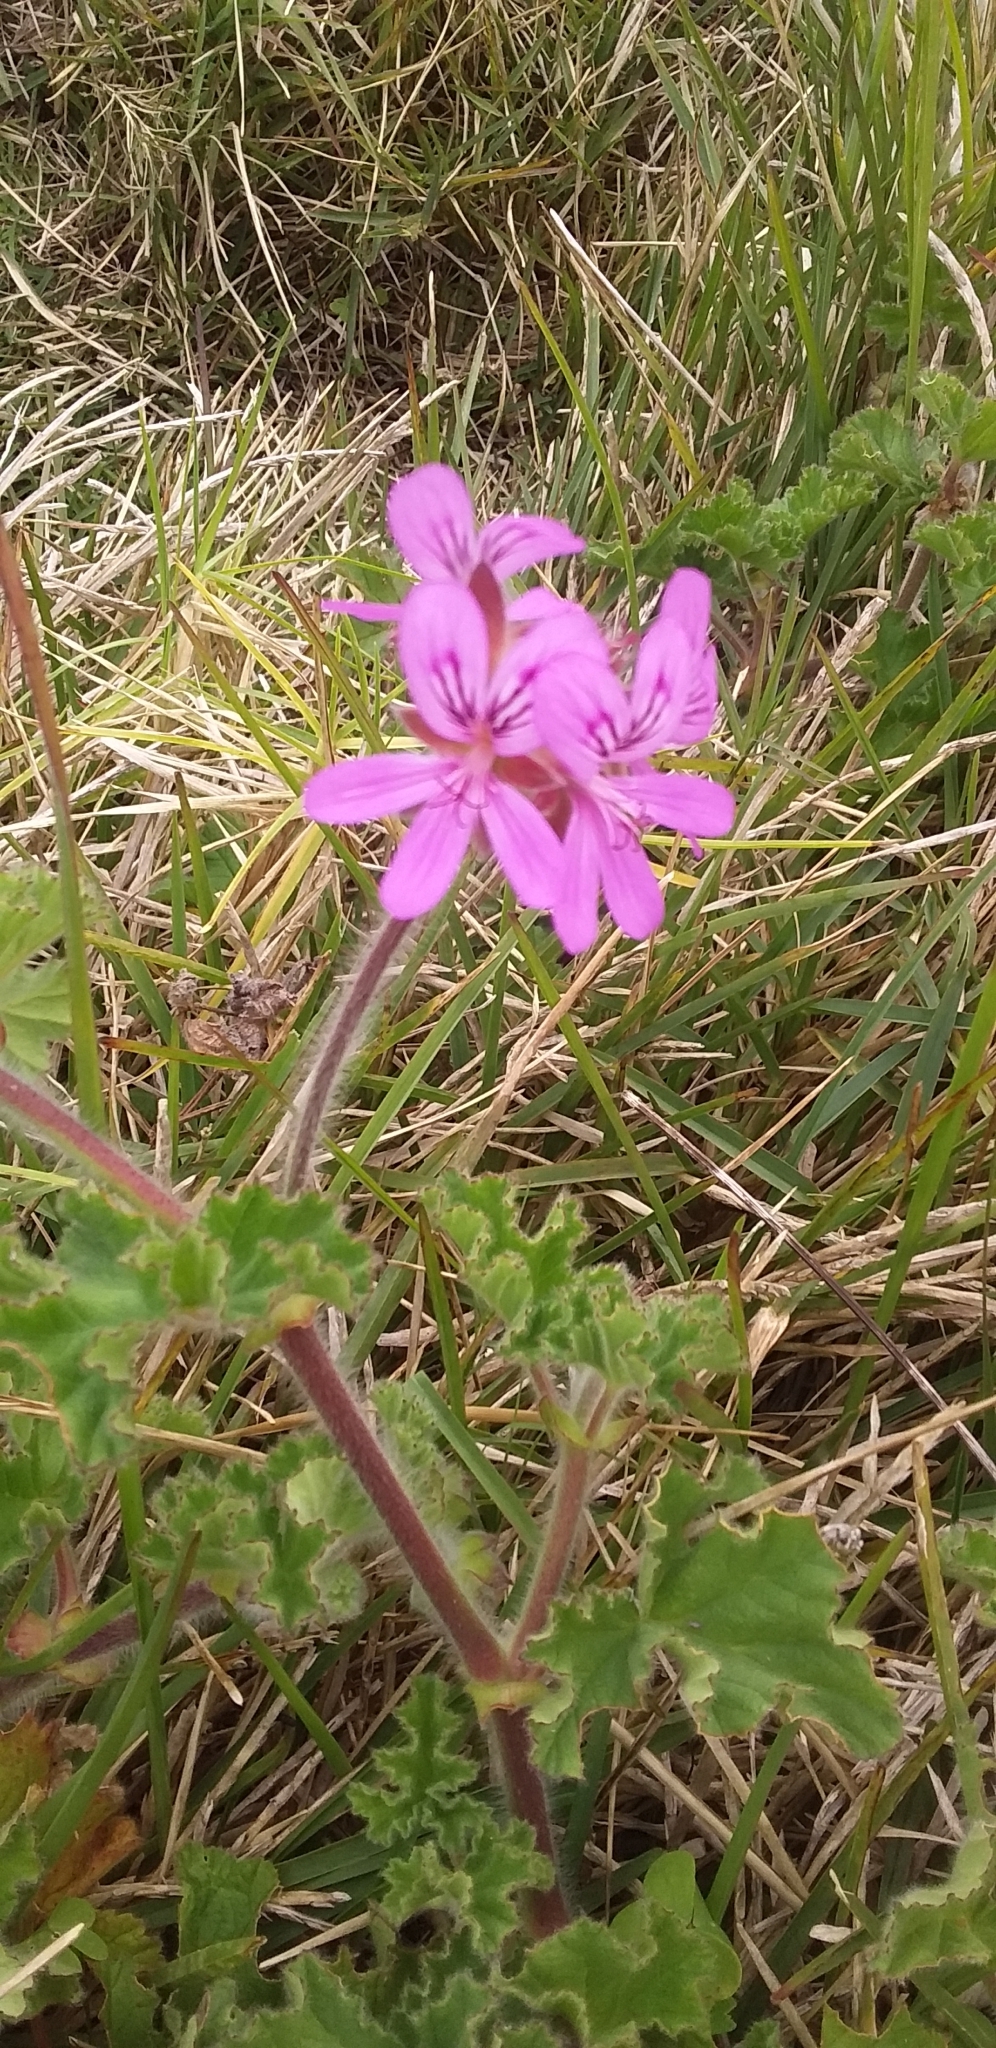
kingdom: Plantae
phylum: Tracheophyta
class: Magnoliopsida
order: Geraniales
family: Geraniaceae
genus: Pelargonium
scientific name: Pelargonium capitatum
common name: Rose scented geranium
